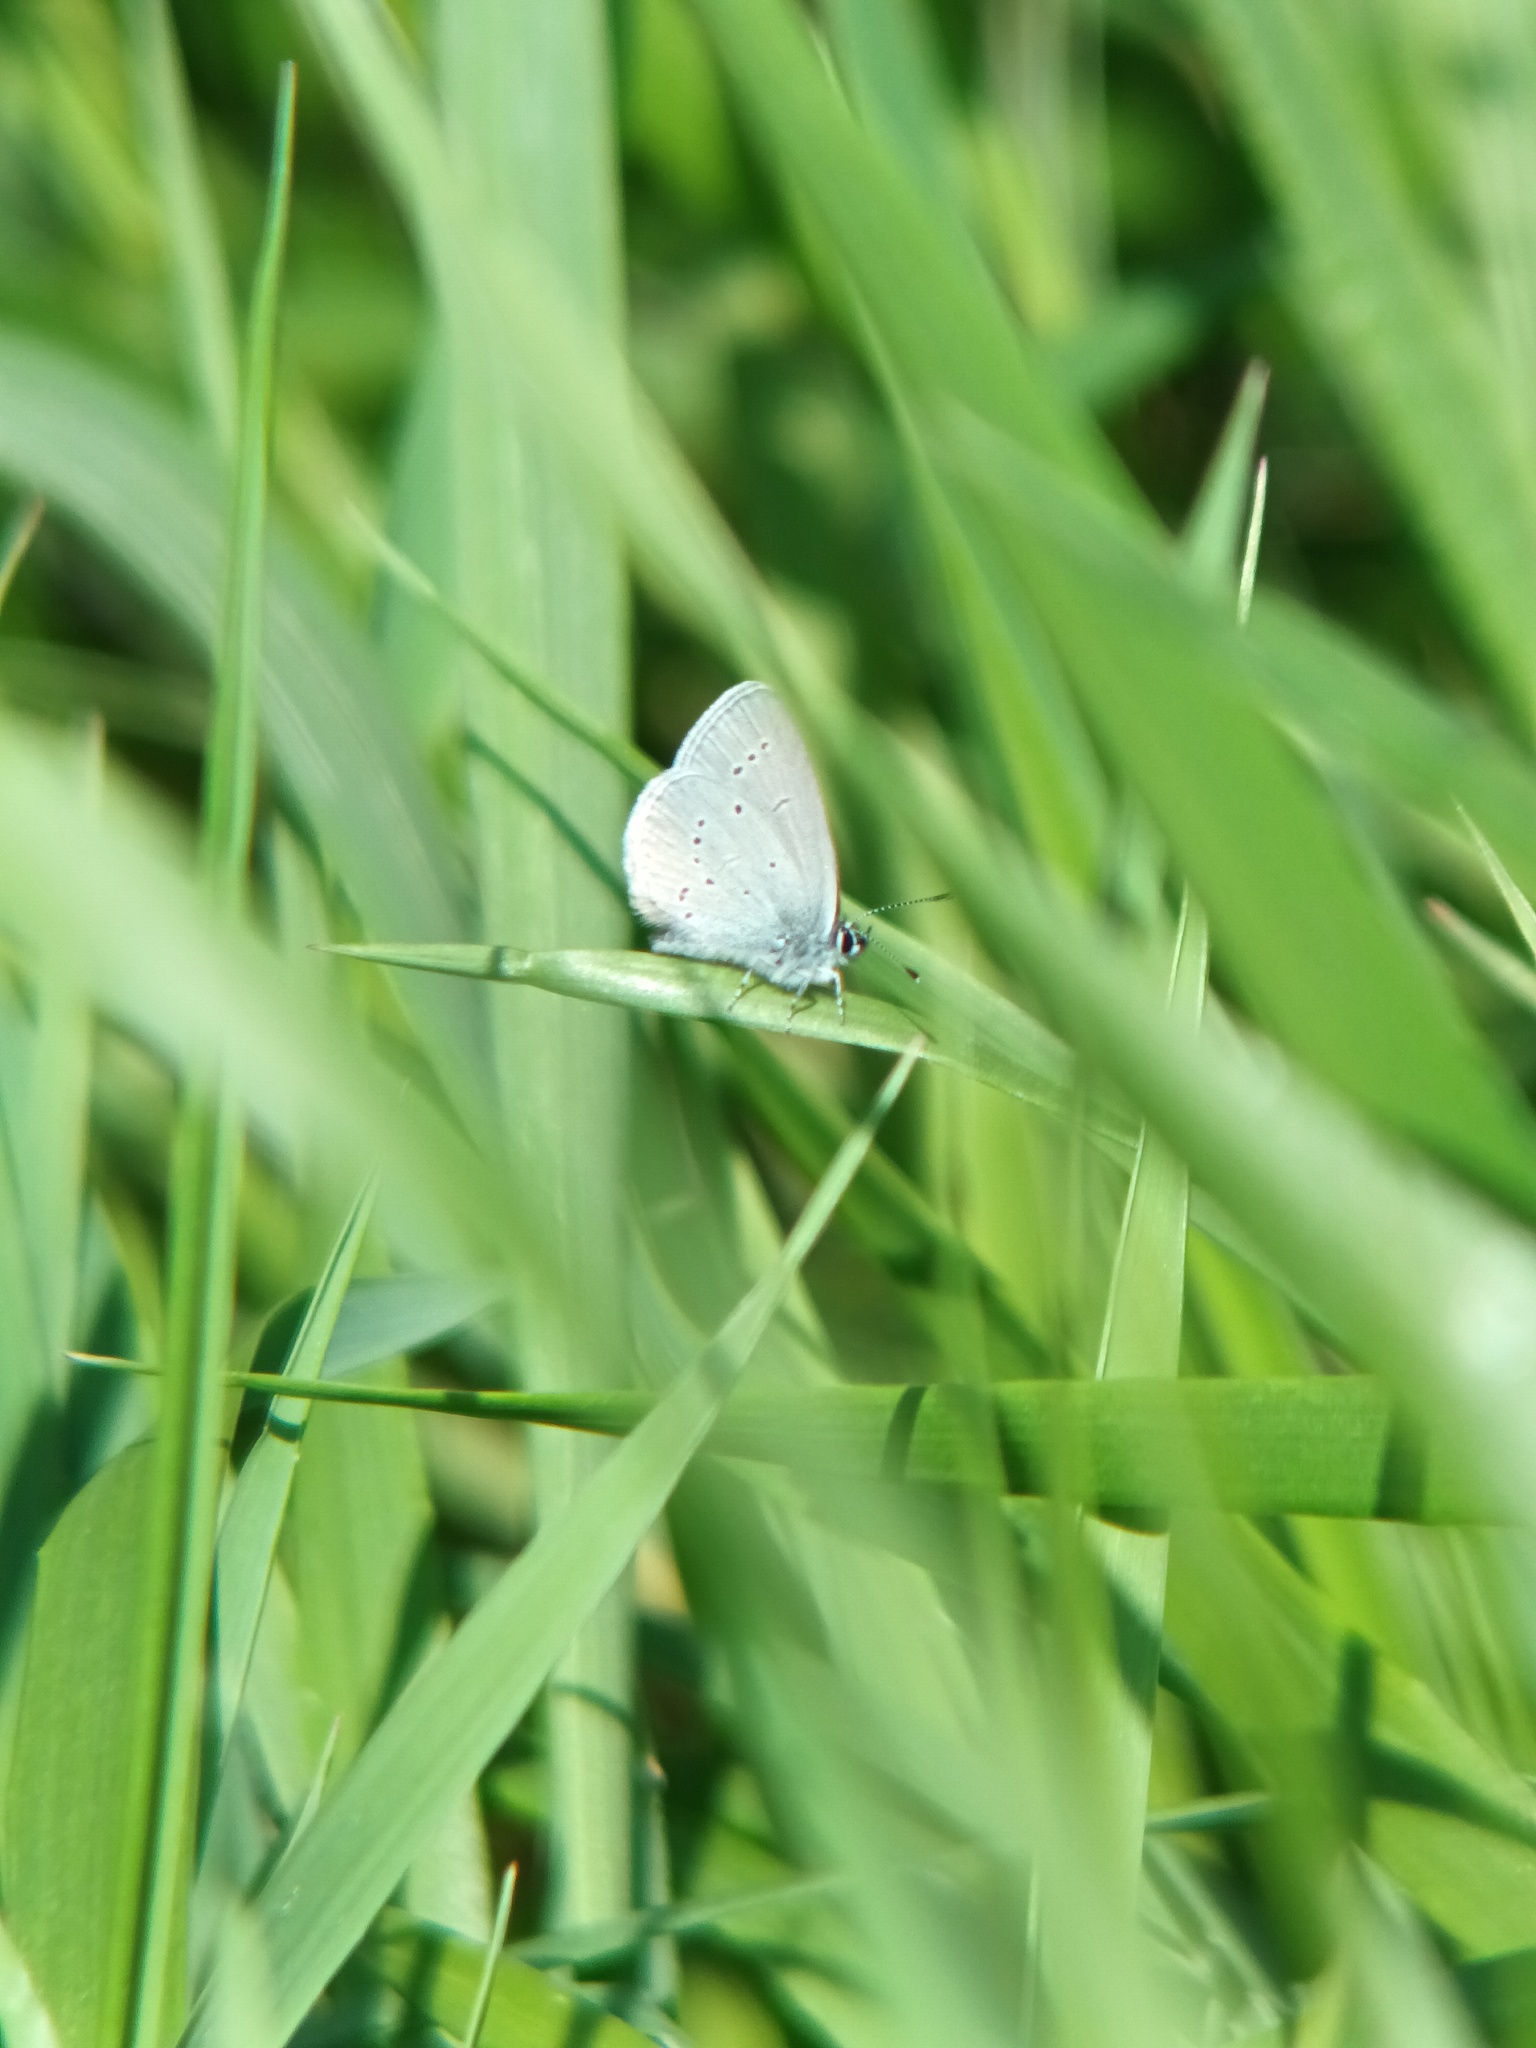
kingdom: Animalia
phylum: Arthropoda
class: Insecta
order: Lepidoptera
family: Lycaenidae
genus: Cupido
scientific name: Cupido minimus
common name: Small blue
